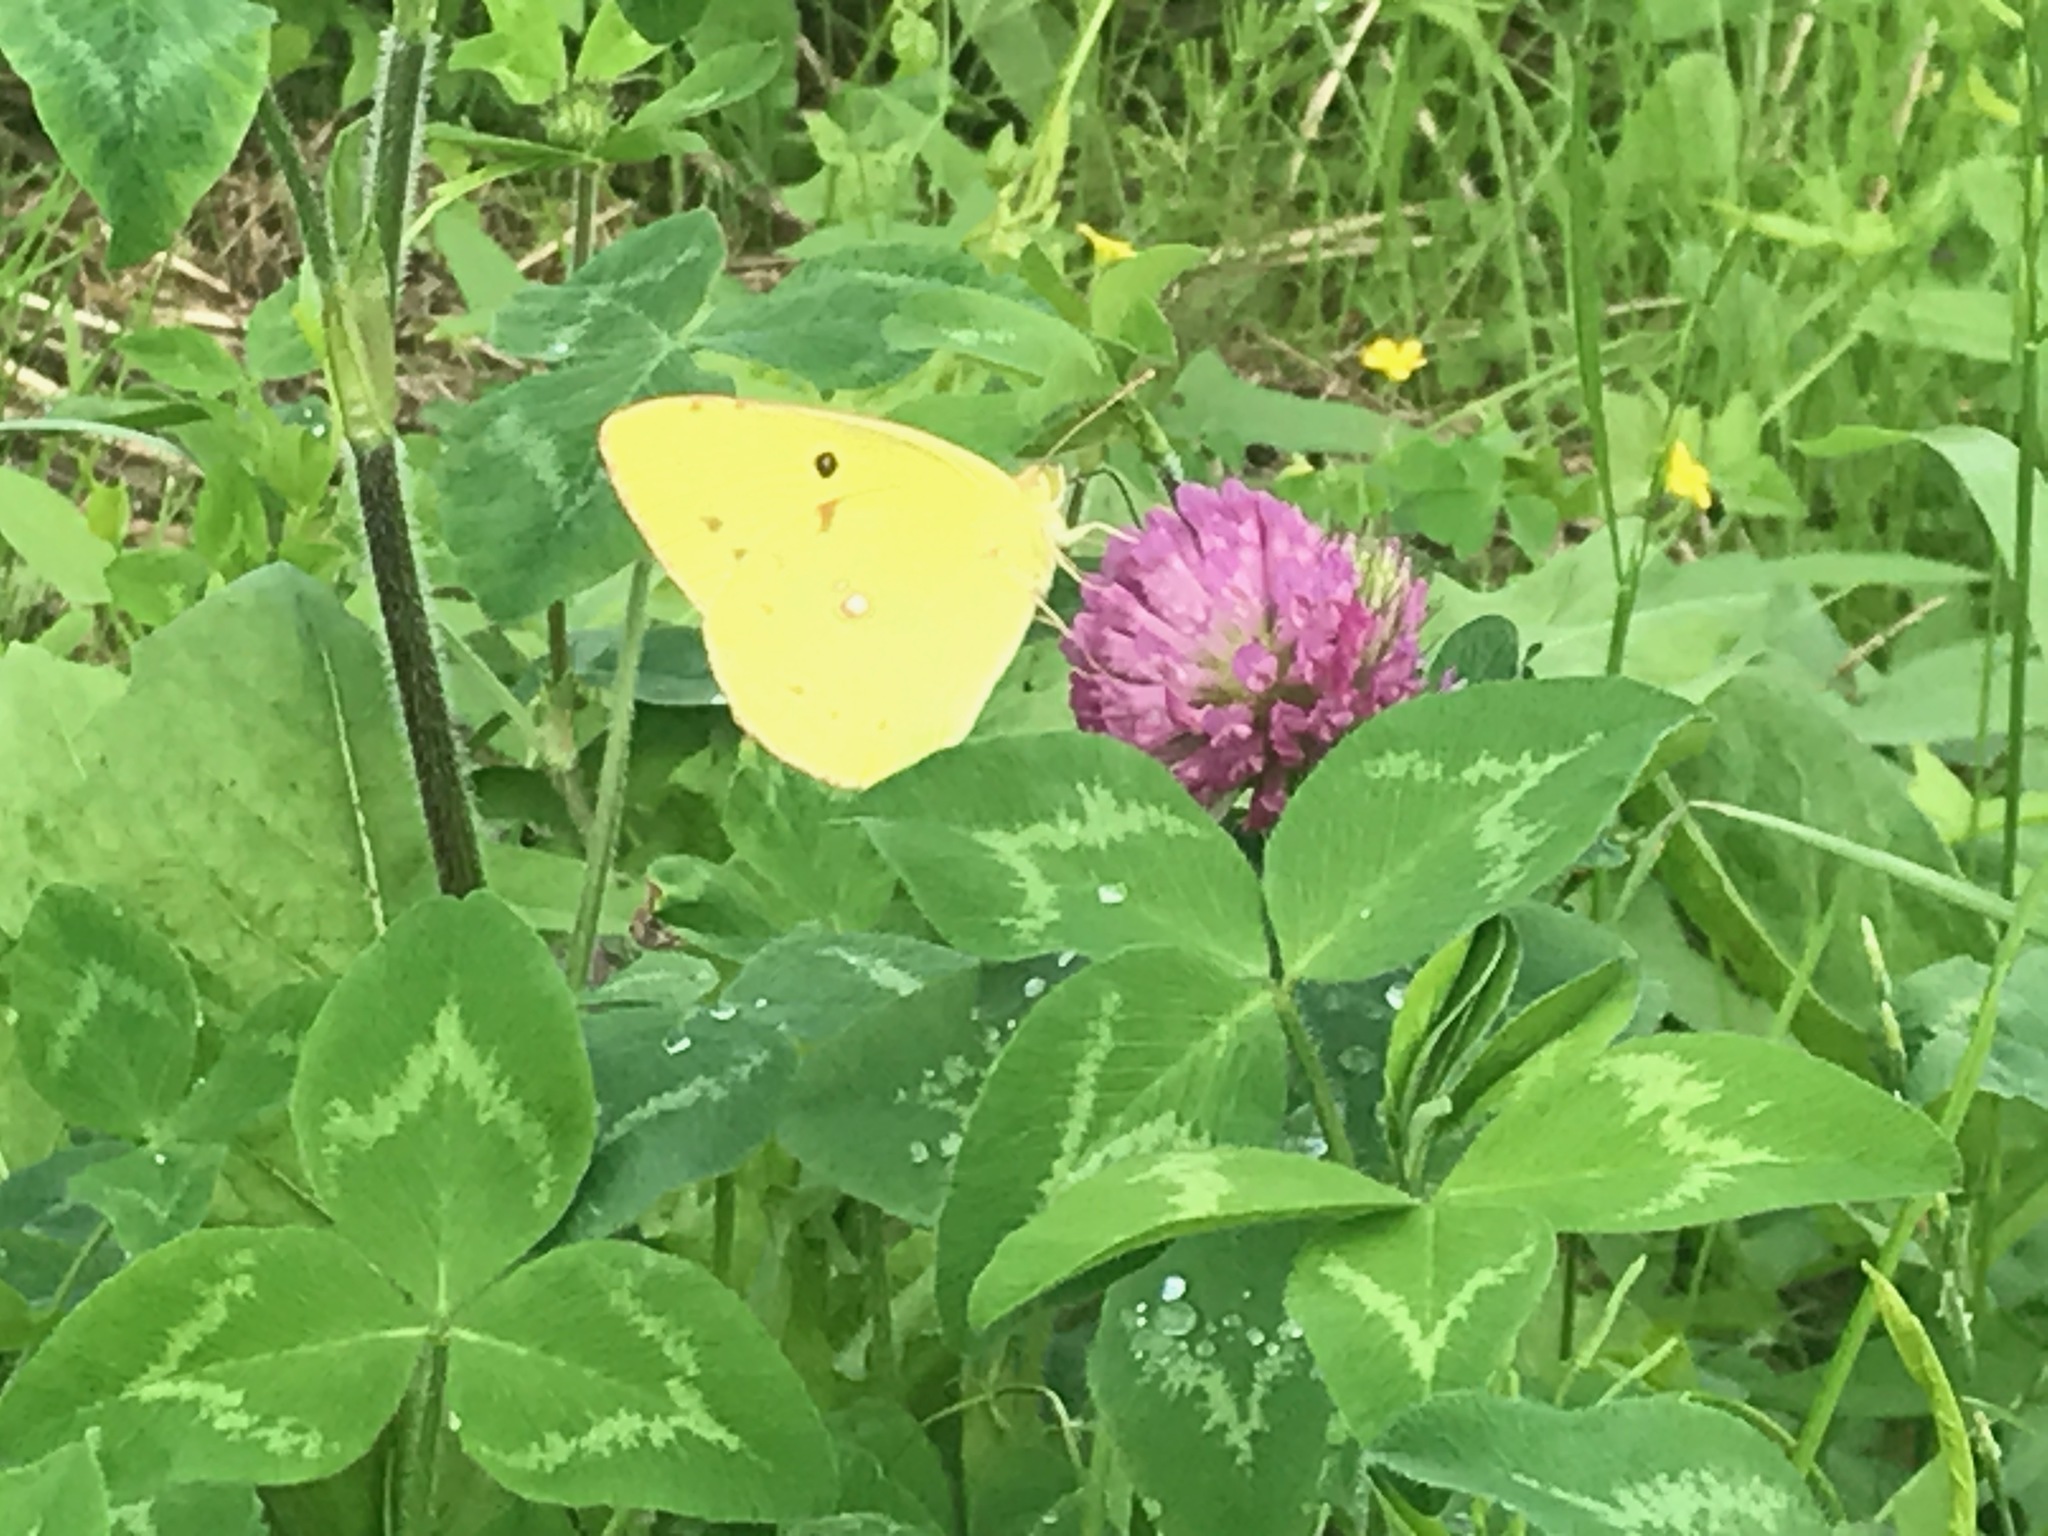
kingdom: Animalia
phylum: Arthropoda
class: Insecta
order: Lepidoptera
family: Pieridae
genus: Colias
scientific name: Colias poliographus
